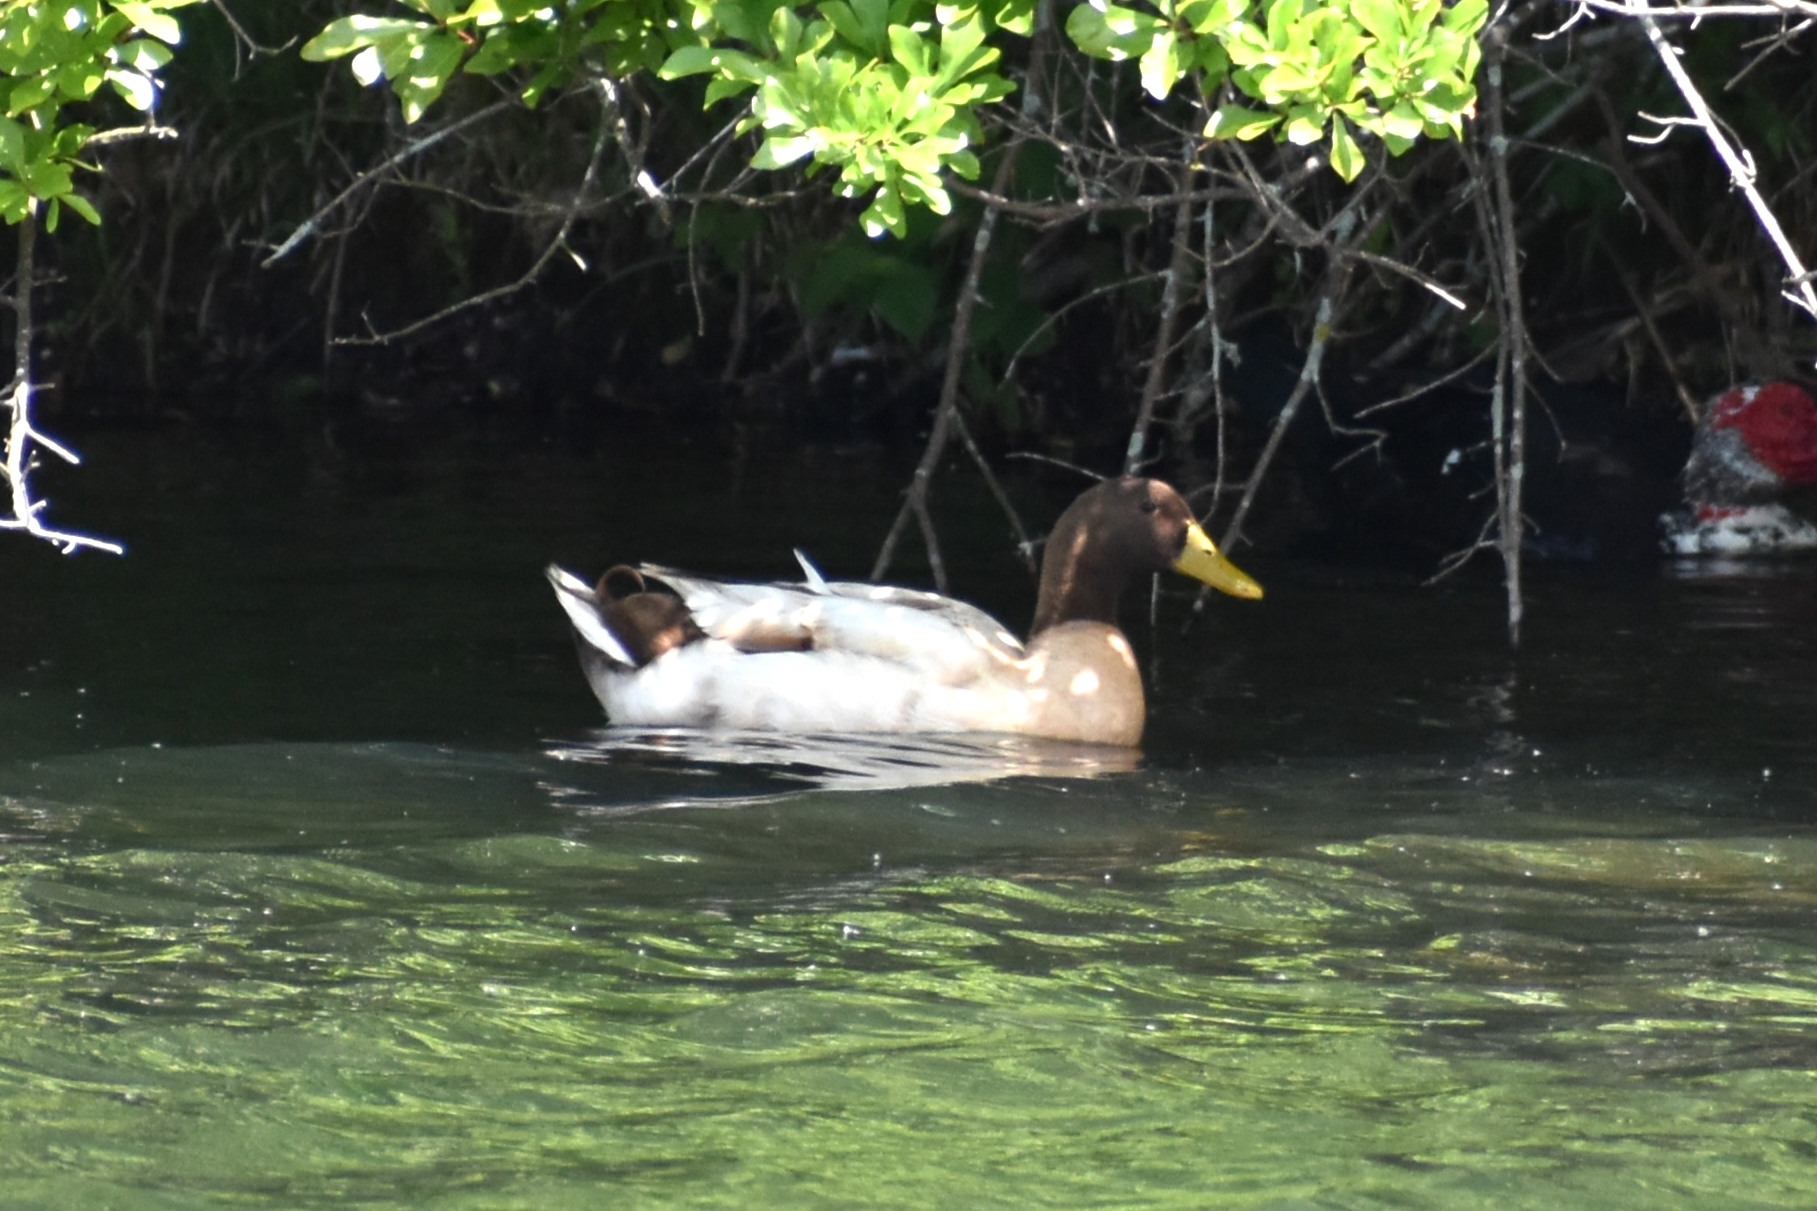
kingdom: Animalia
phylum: Chordata
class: Aves
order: Anseriformes
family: Anatidae
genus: Anas
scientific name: Anas platyrhynchos
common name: Mallard
